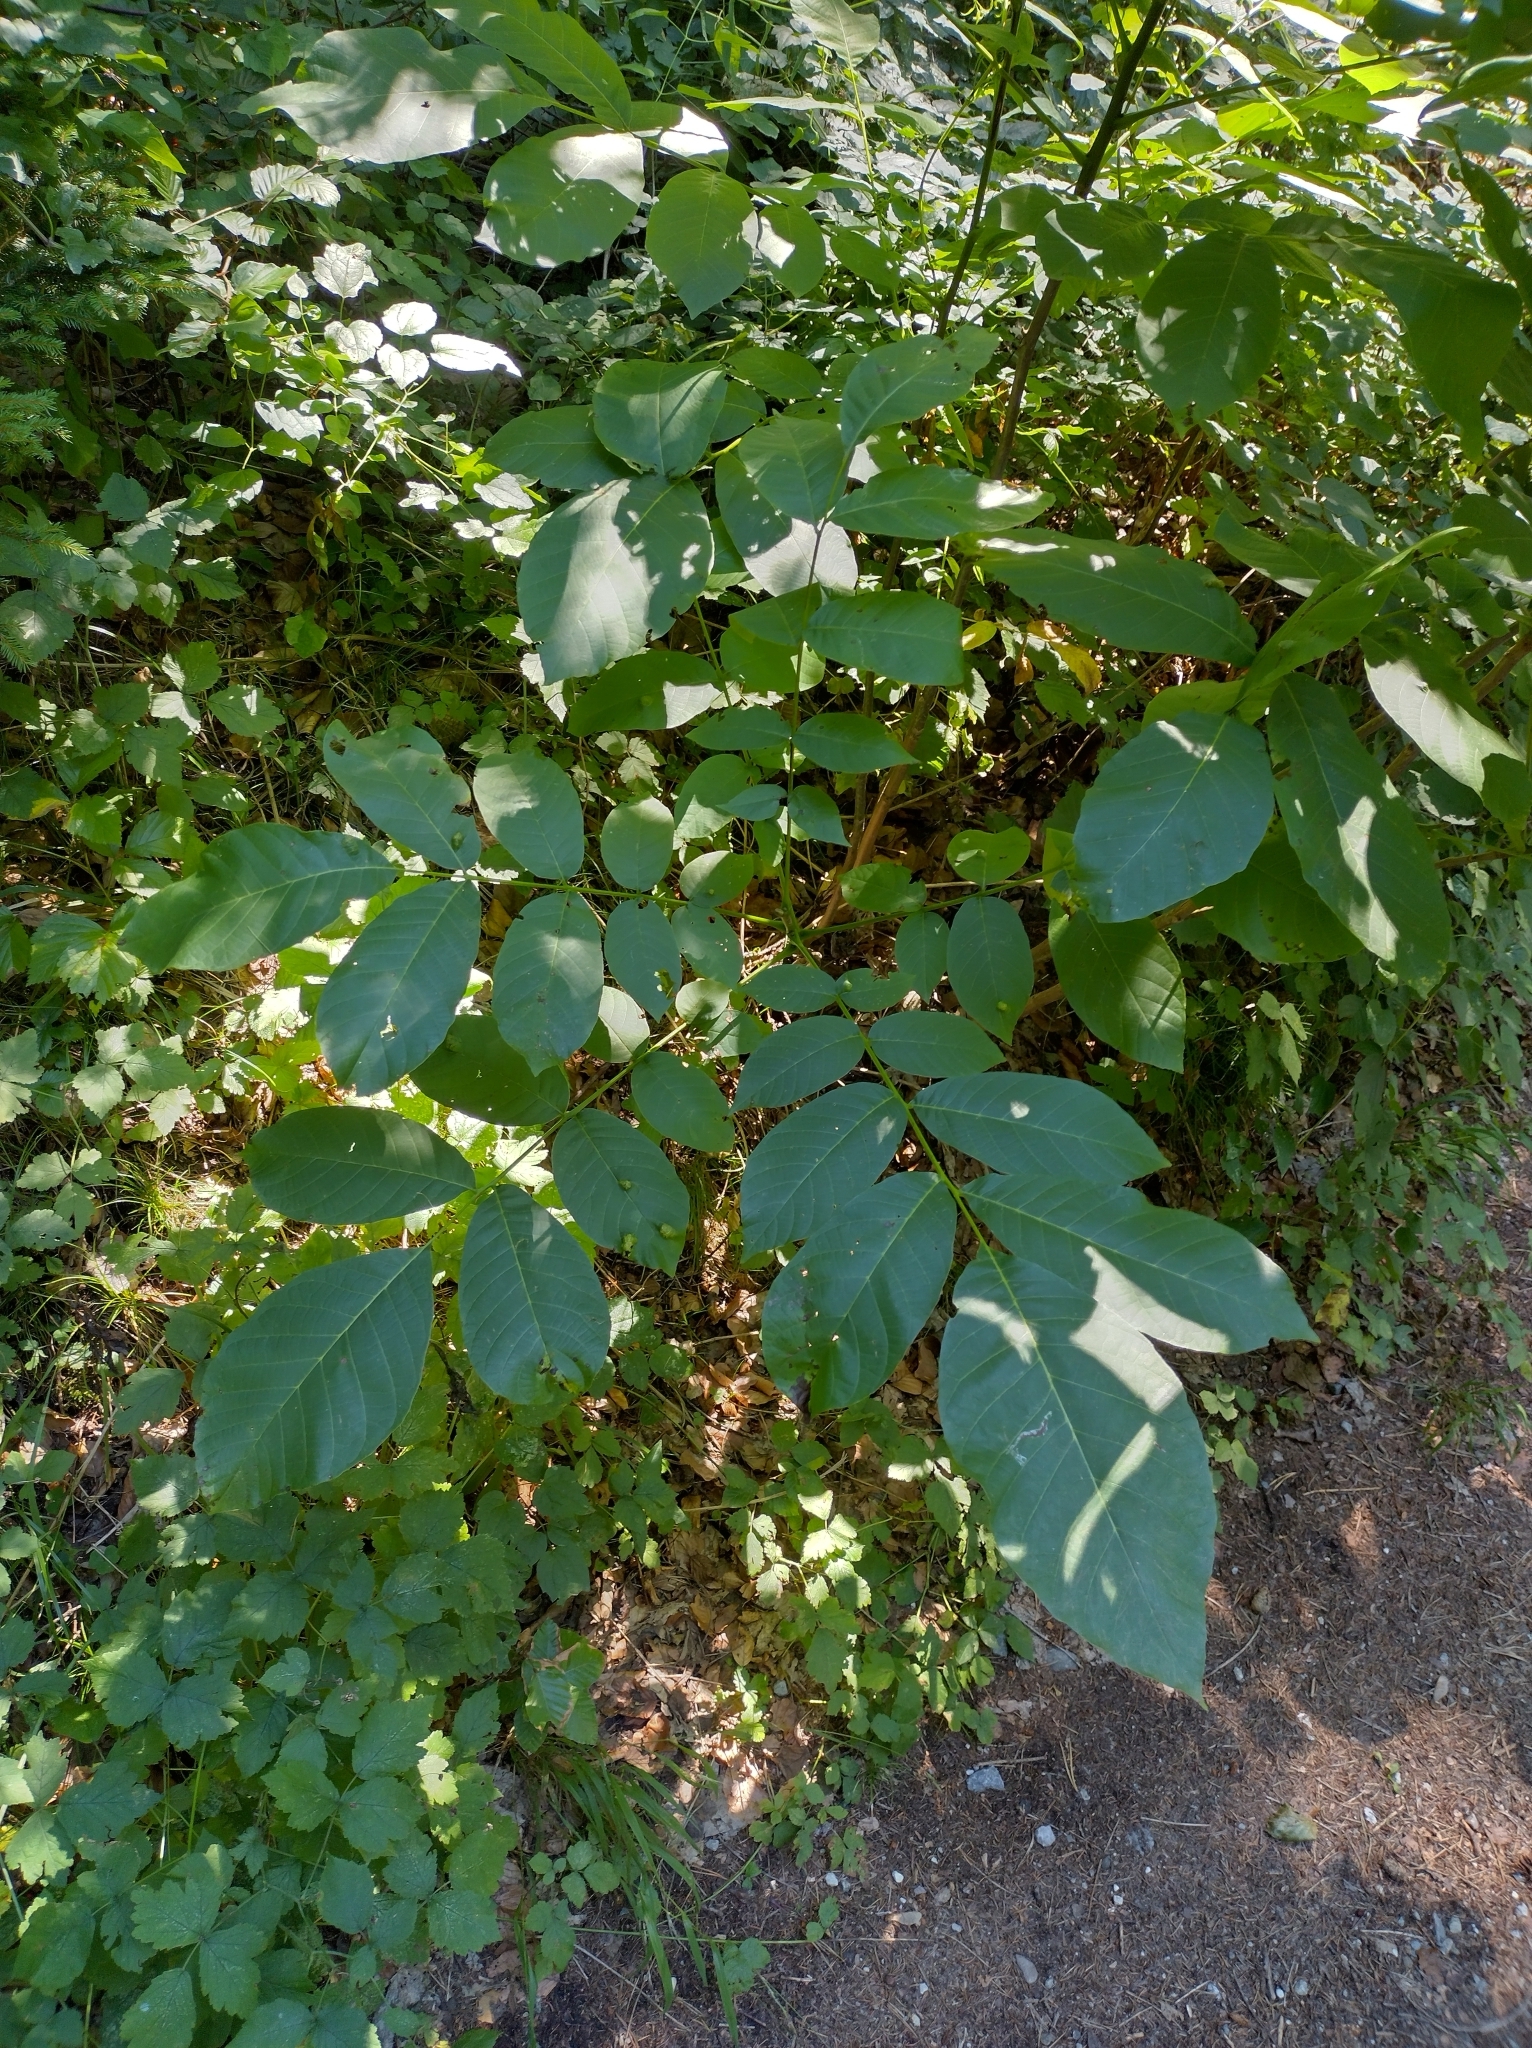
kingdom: Plantae
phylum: Tracheophyta
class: Magnoliopsida
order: Fagales
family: Juglandaceae
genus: Juglans
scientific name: Juglans regia
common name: Walnut
